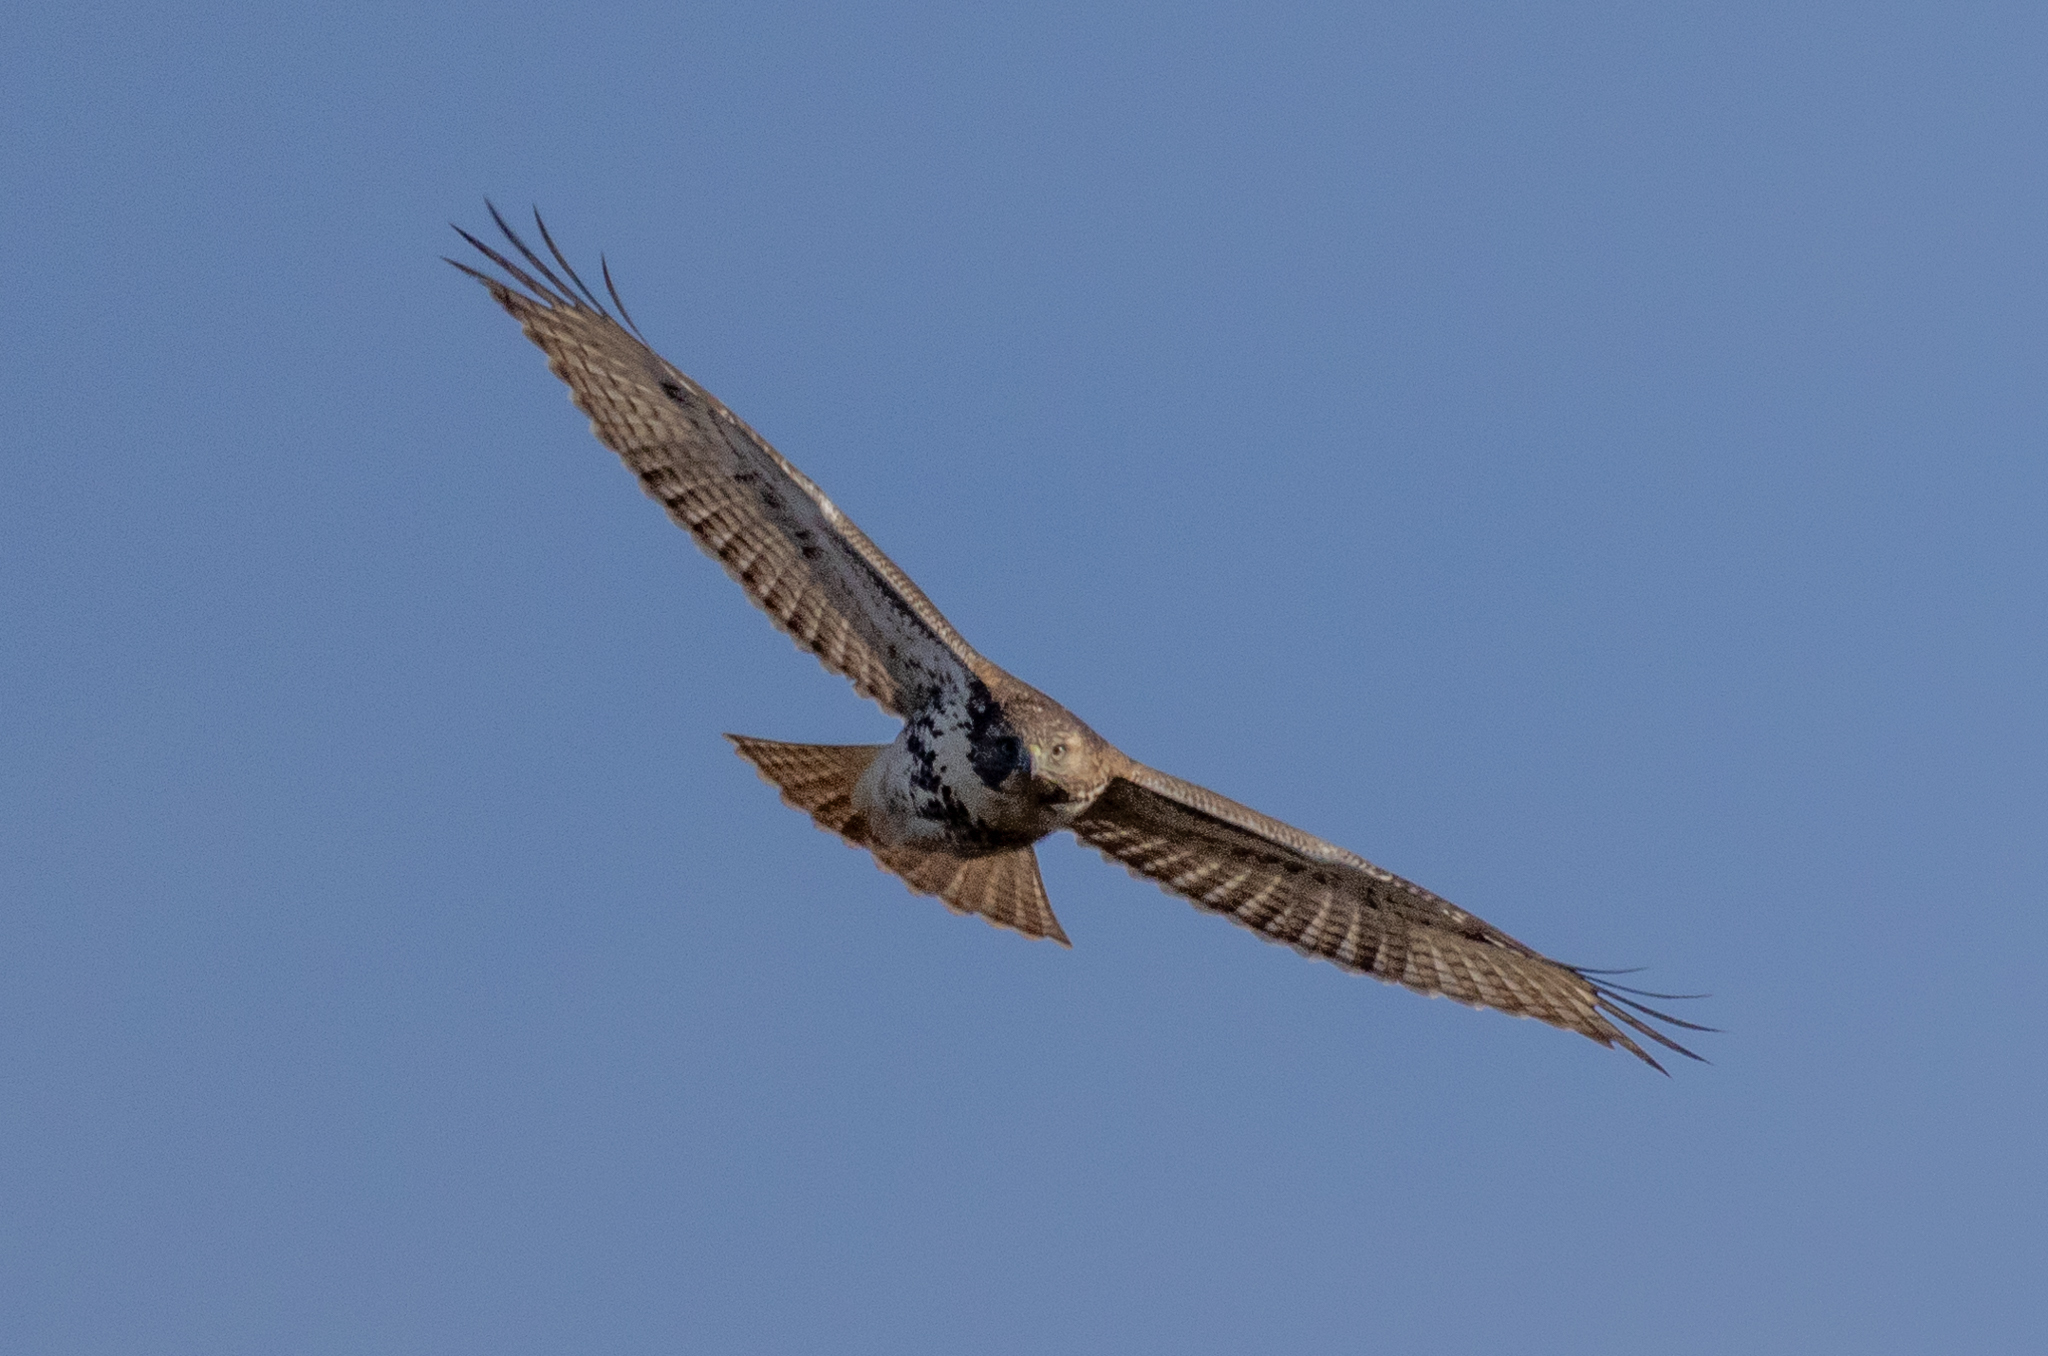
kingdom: Animalia
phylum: Chordata
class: Aves
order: Accipitriformes
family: Accipitridae
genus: Buteo
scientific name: Buteo jamaicensis
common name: Red-tailed hawk
